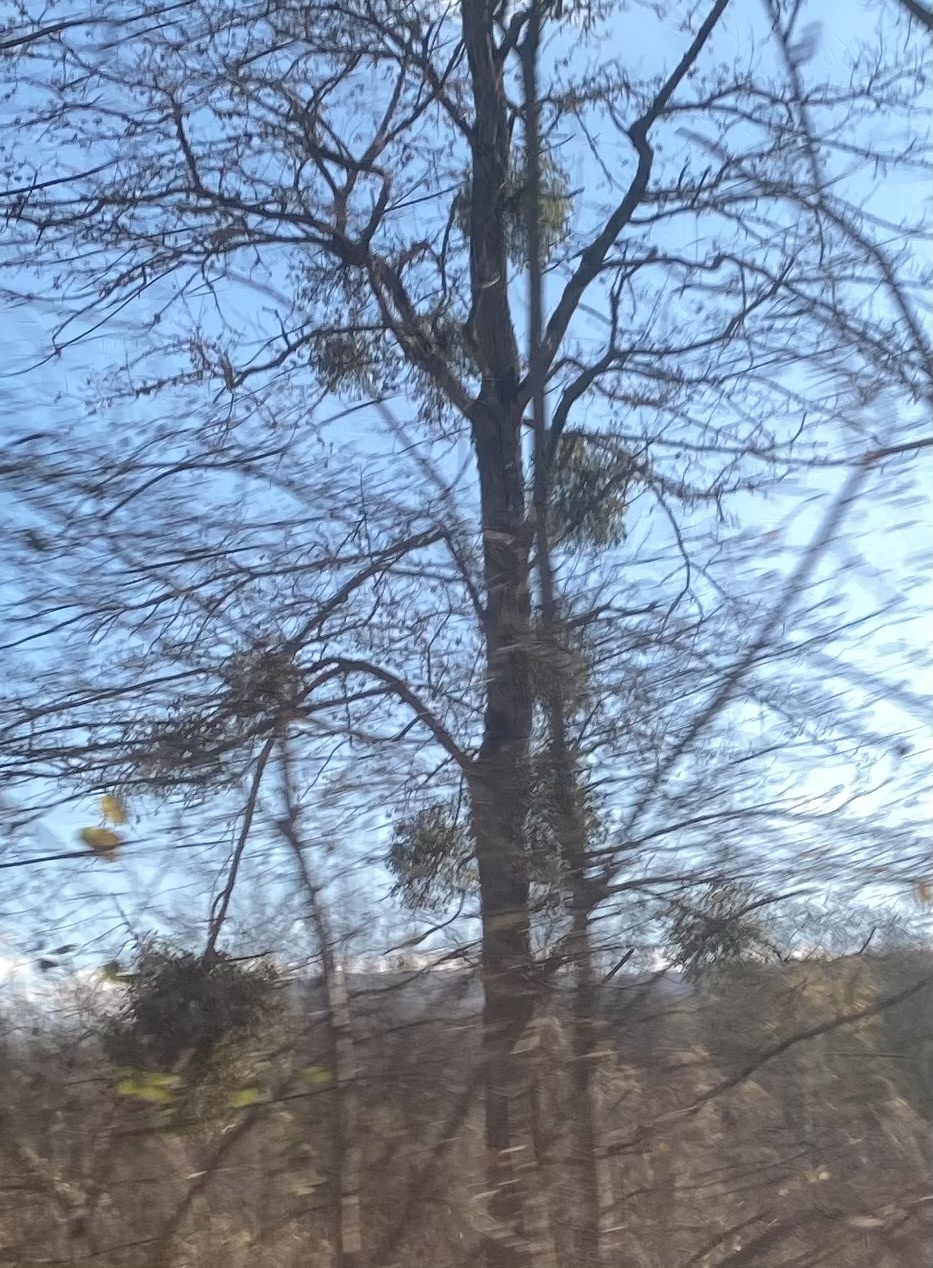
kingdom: Plantae
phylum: Tracheophyta
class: Magnoliopsida
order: Santalales
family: Viscaceae
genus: Viscum
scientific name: Viscum album
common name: Mistletoe
